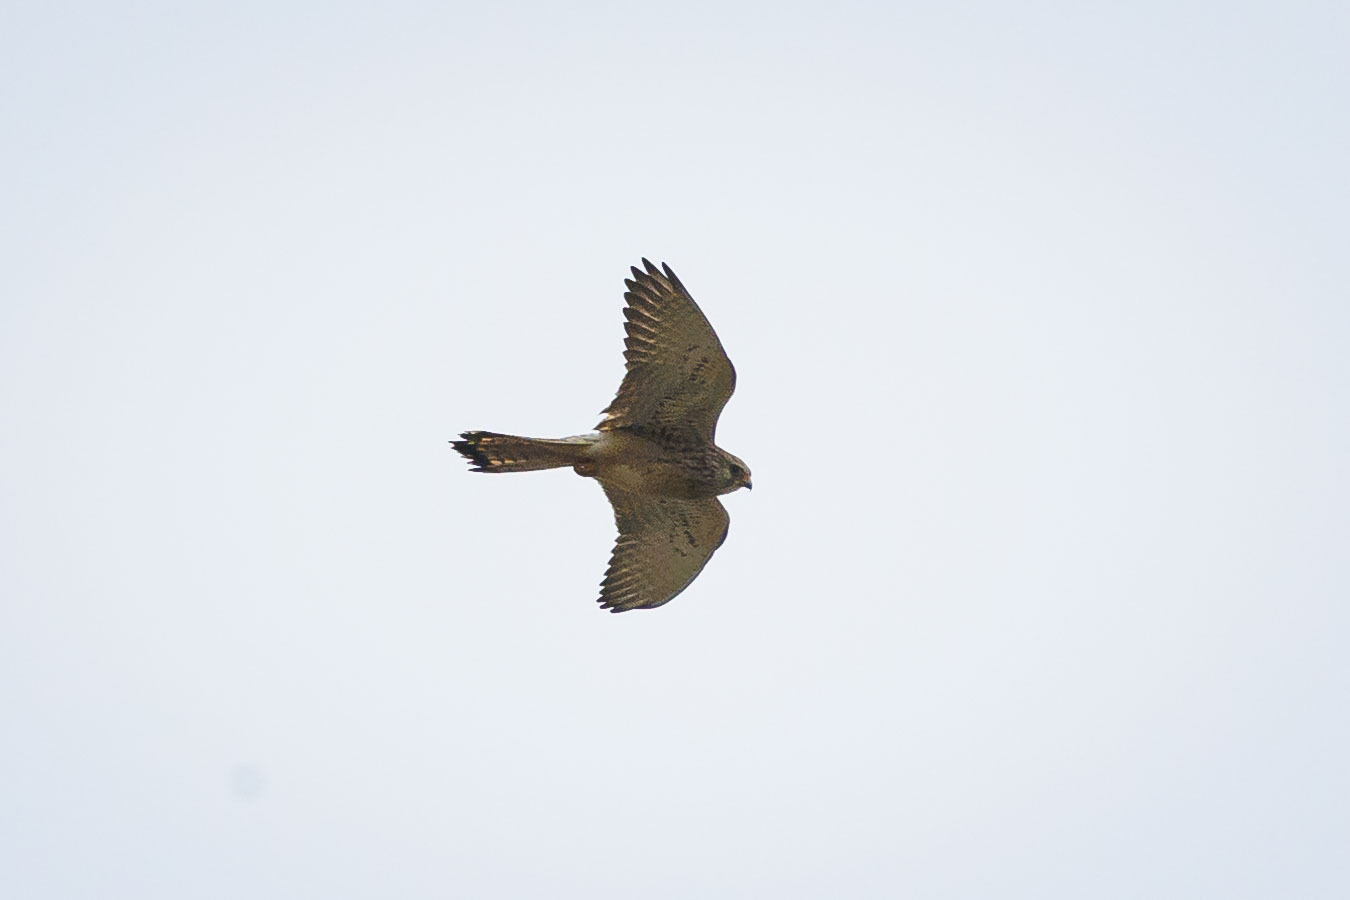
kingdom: Animalia
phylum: Chordata
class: Aves
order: Falconiformes
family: Falconidae
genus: Falco
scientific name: Falco tinnunculus
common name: Common kestrel
